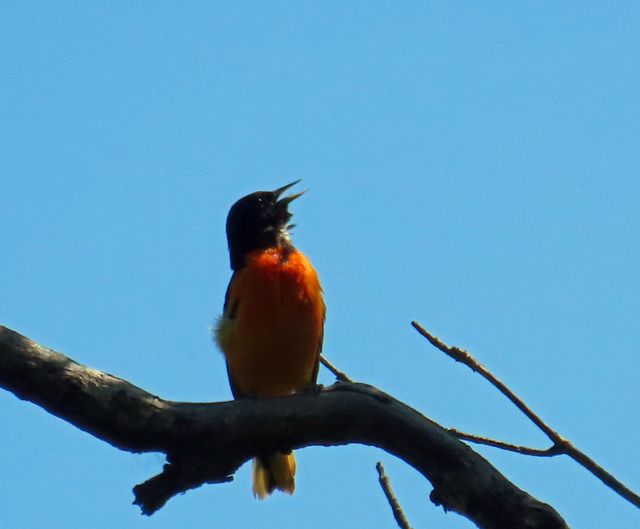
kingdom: Animalia
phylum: Chordata
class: Aves
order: Passeriformes
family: Icteridae
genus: Icterus
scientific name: Icterus galbula
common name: Baltimore oriole
